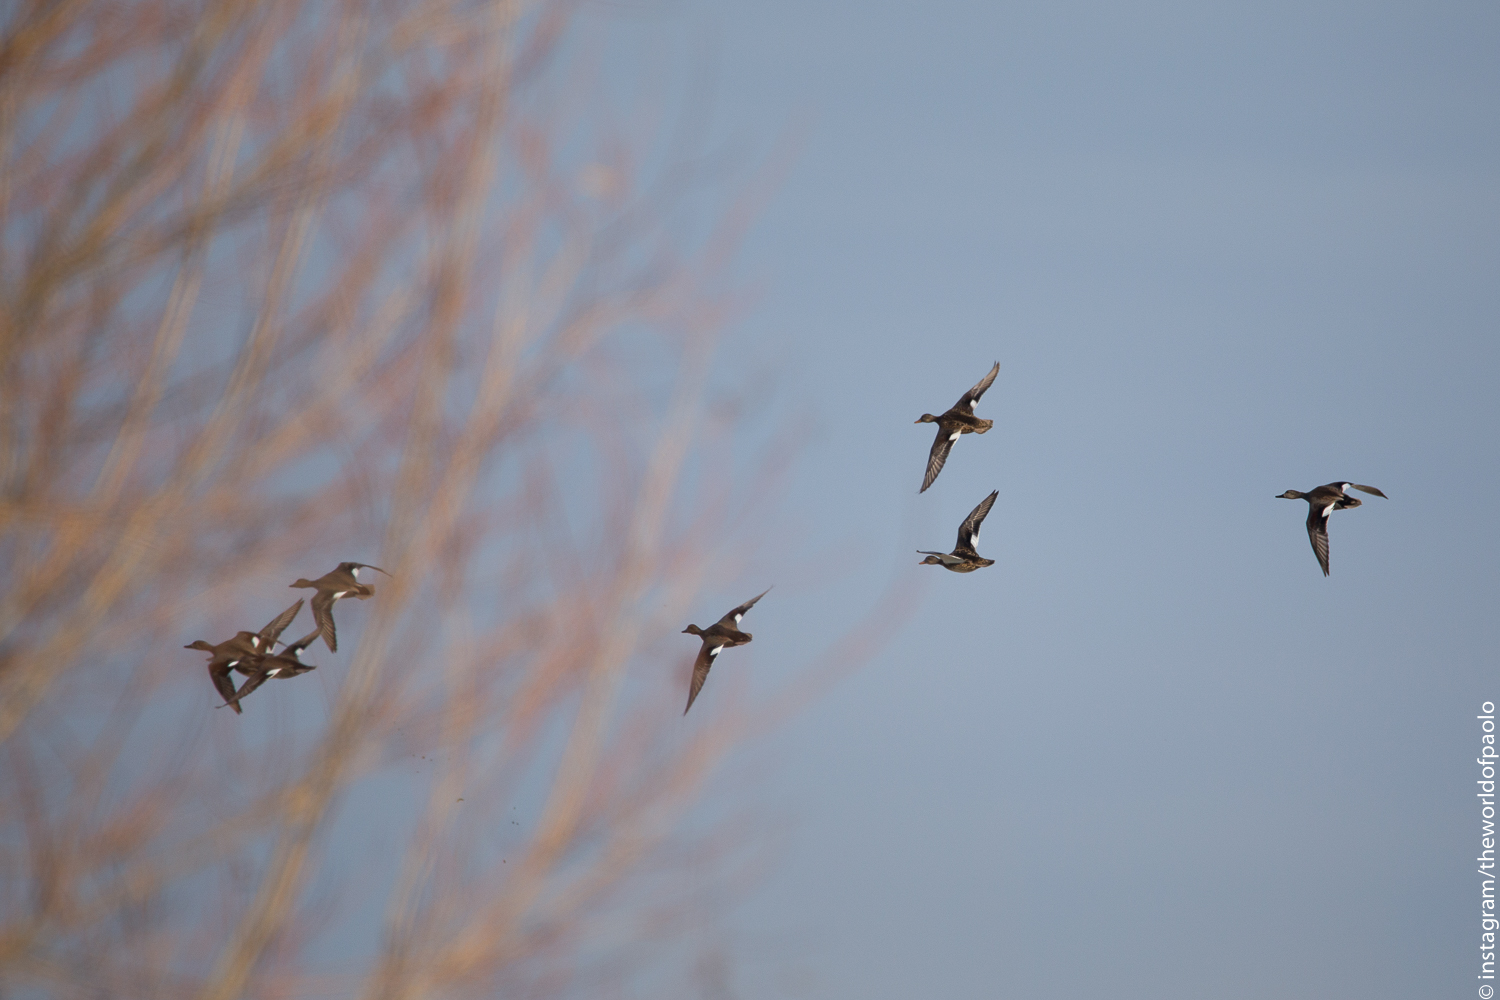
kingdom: Animalia
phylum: Chordata
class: Aves
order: Anseriformes
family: Anatidae
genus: Mareca
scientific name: Mareca strepera
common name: Gadwall
